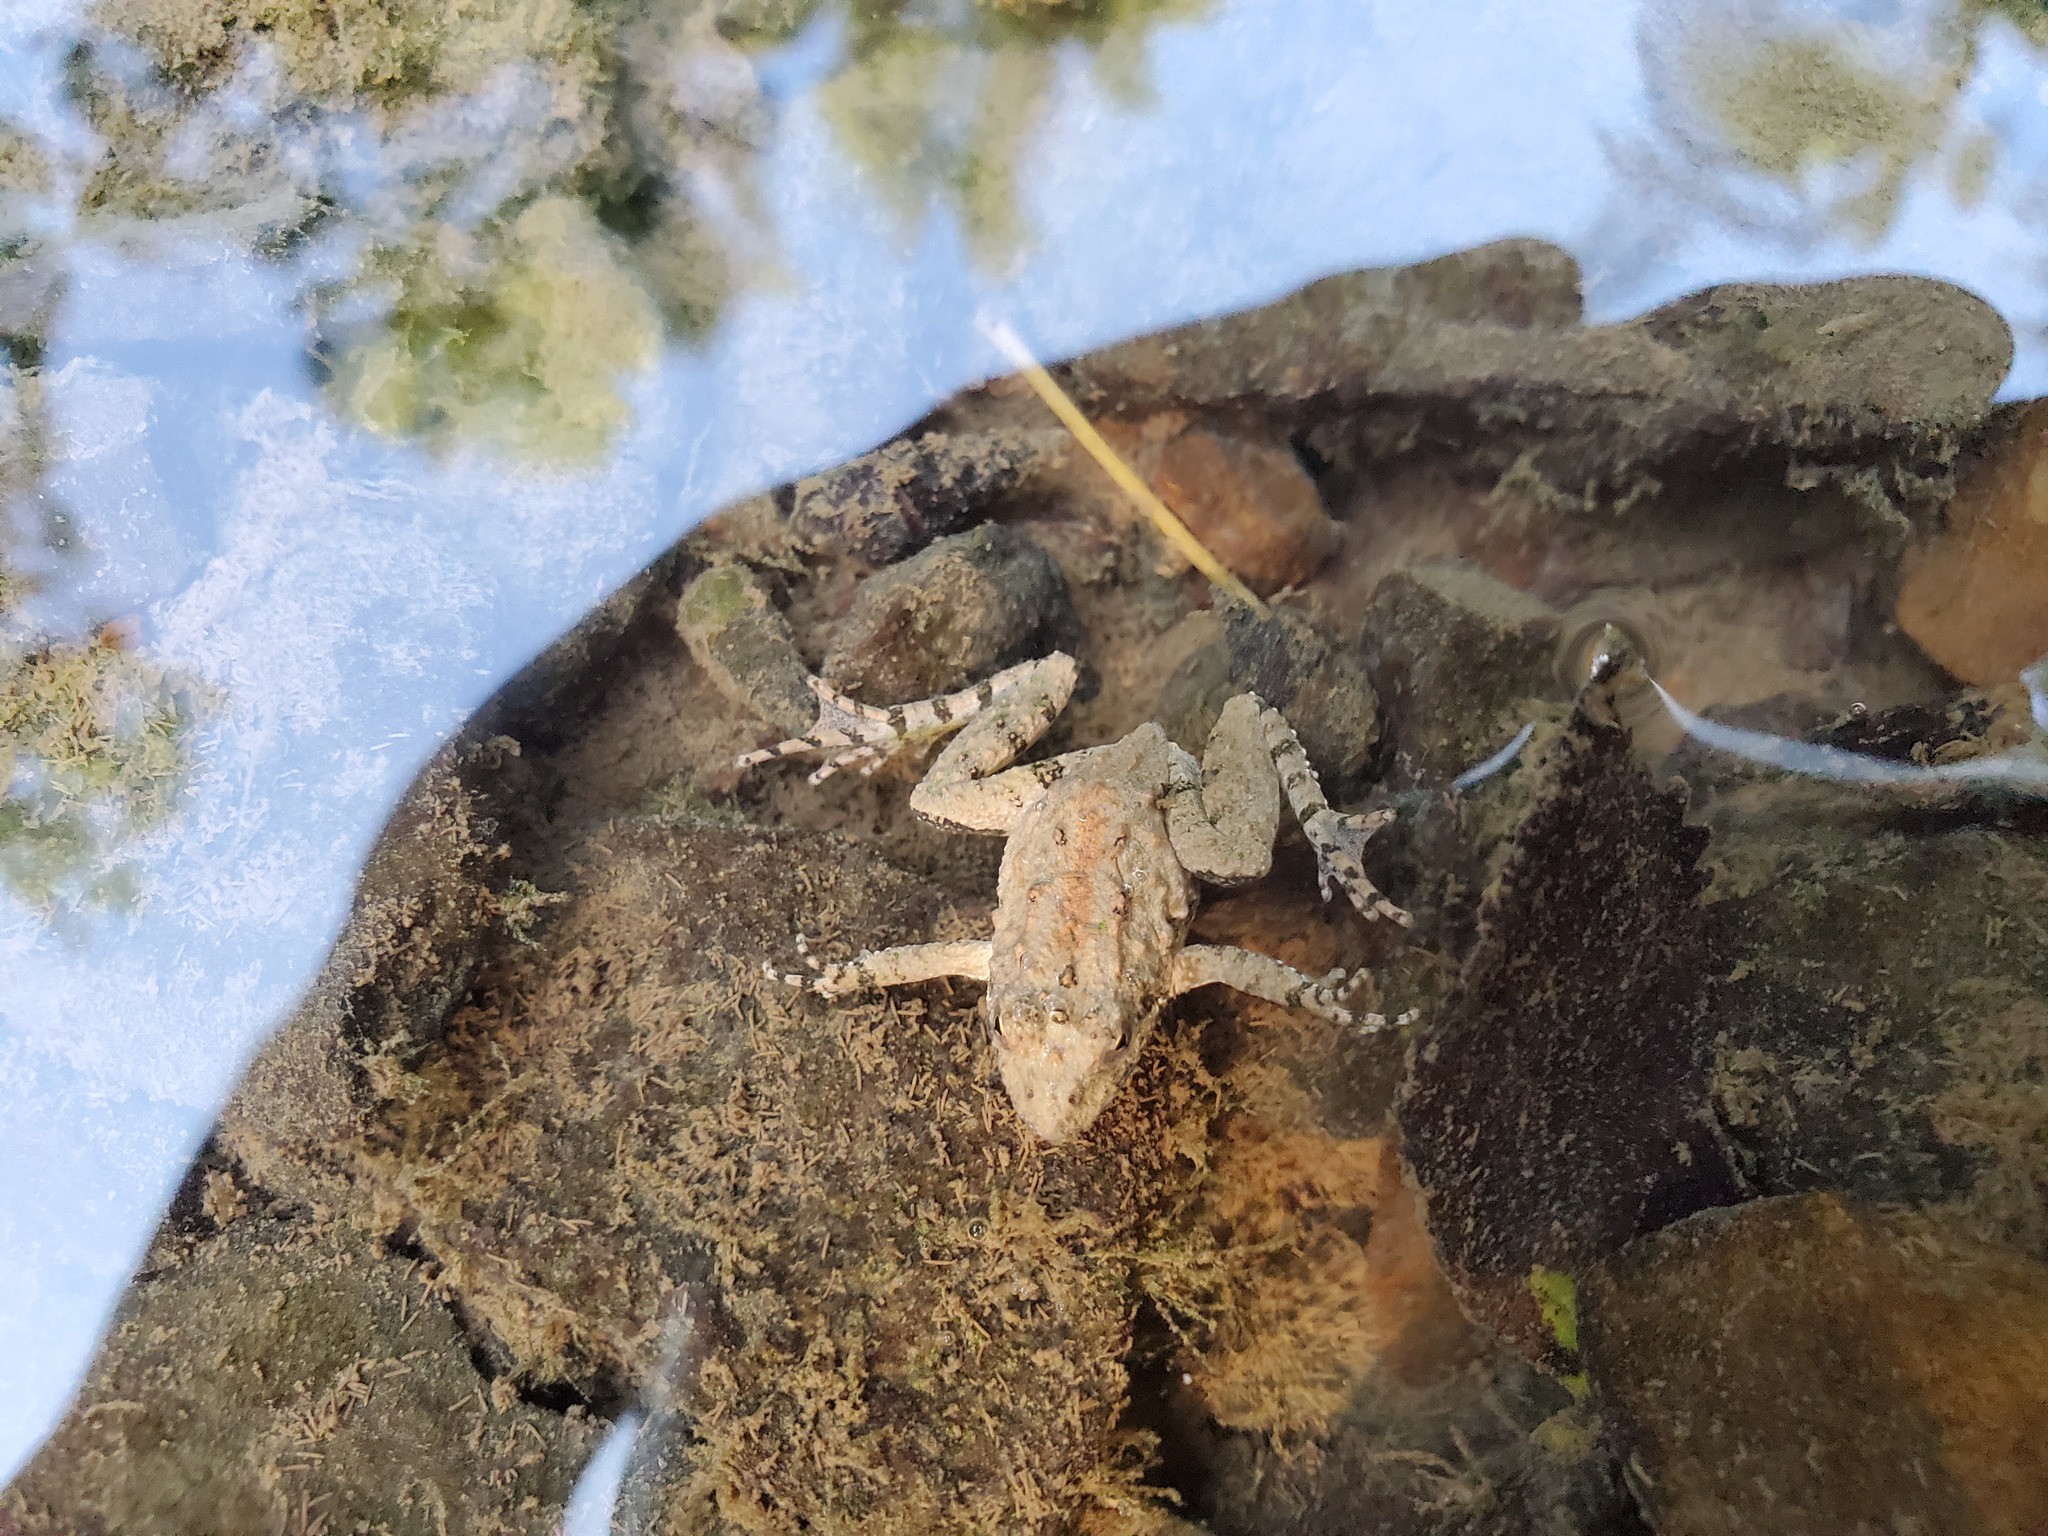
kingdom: Animalia
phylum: Chordata
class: Amphibia
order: Anura
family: Hylidae
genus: Acris
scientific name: Acris crepitans
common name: Northern cricket frog
